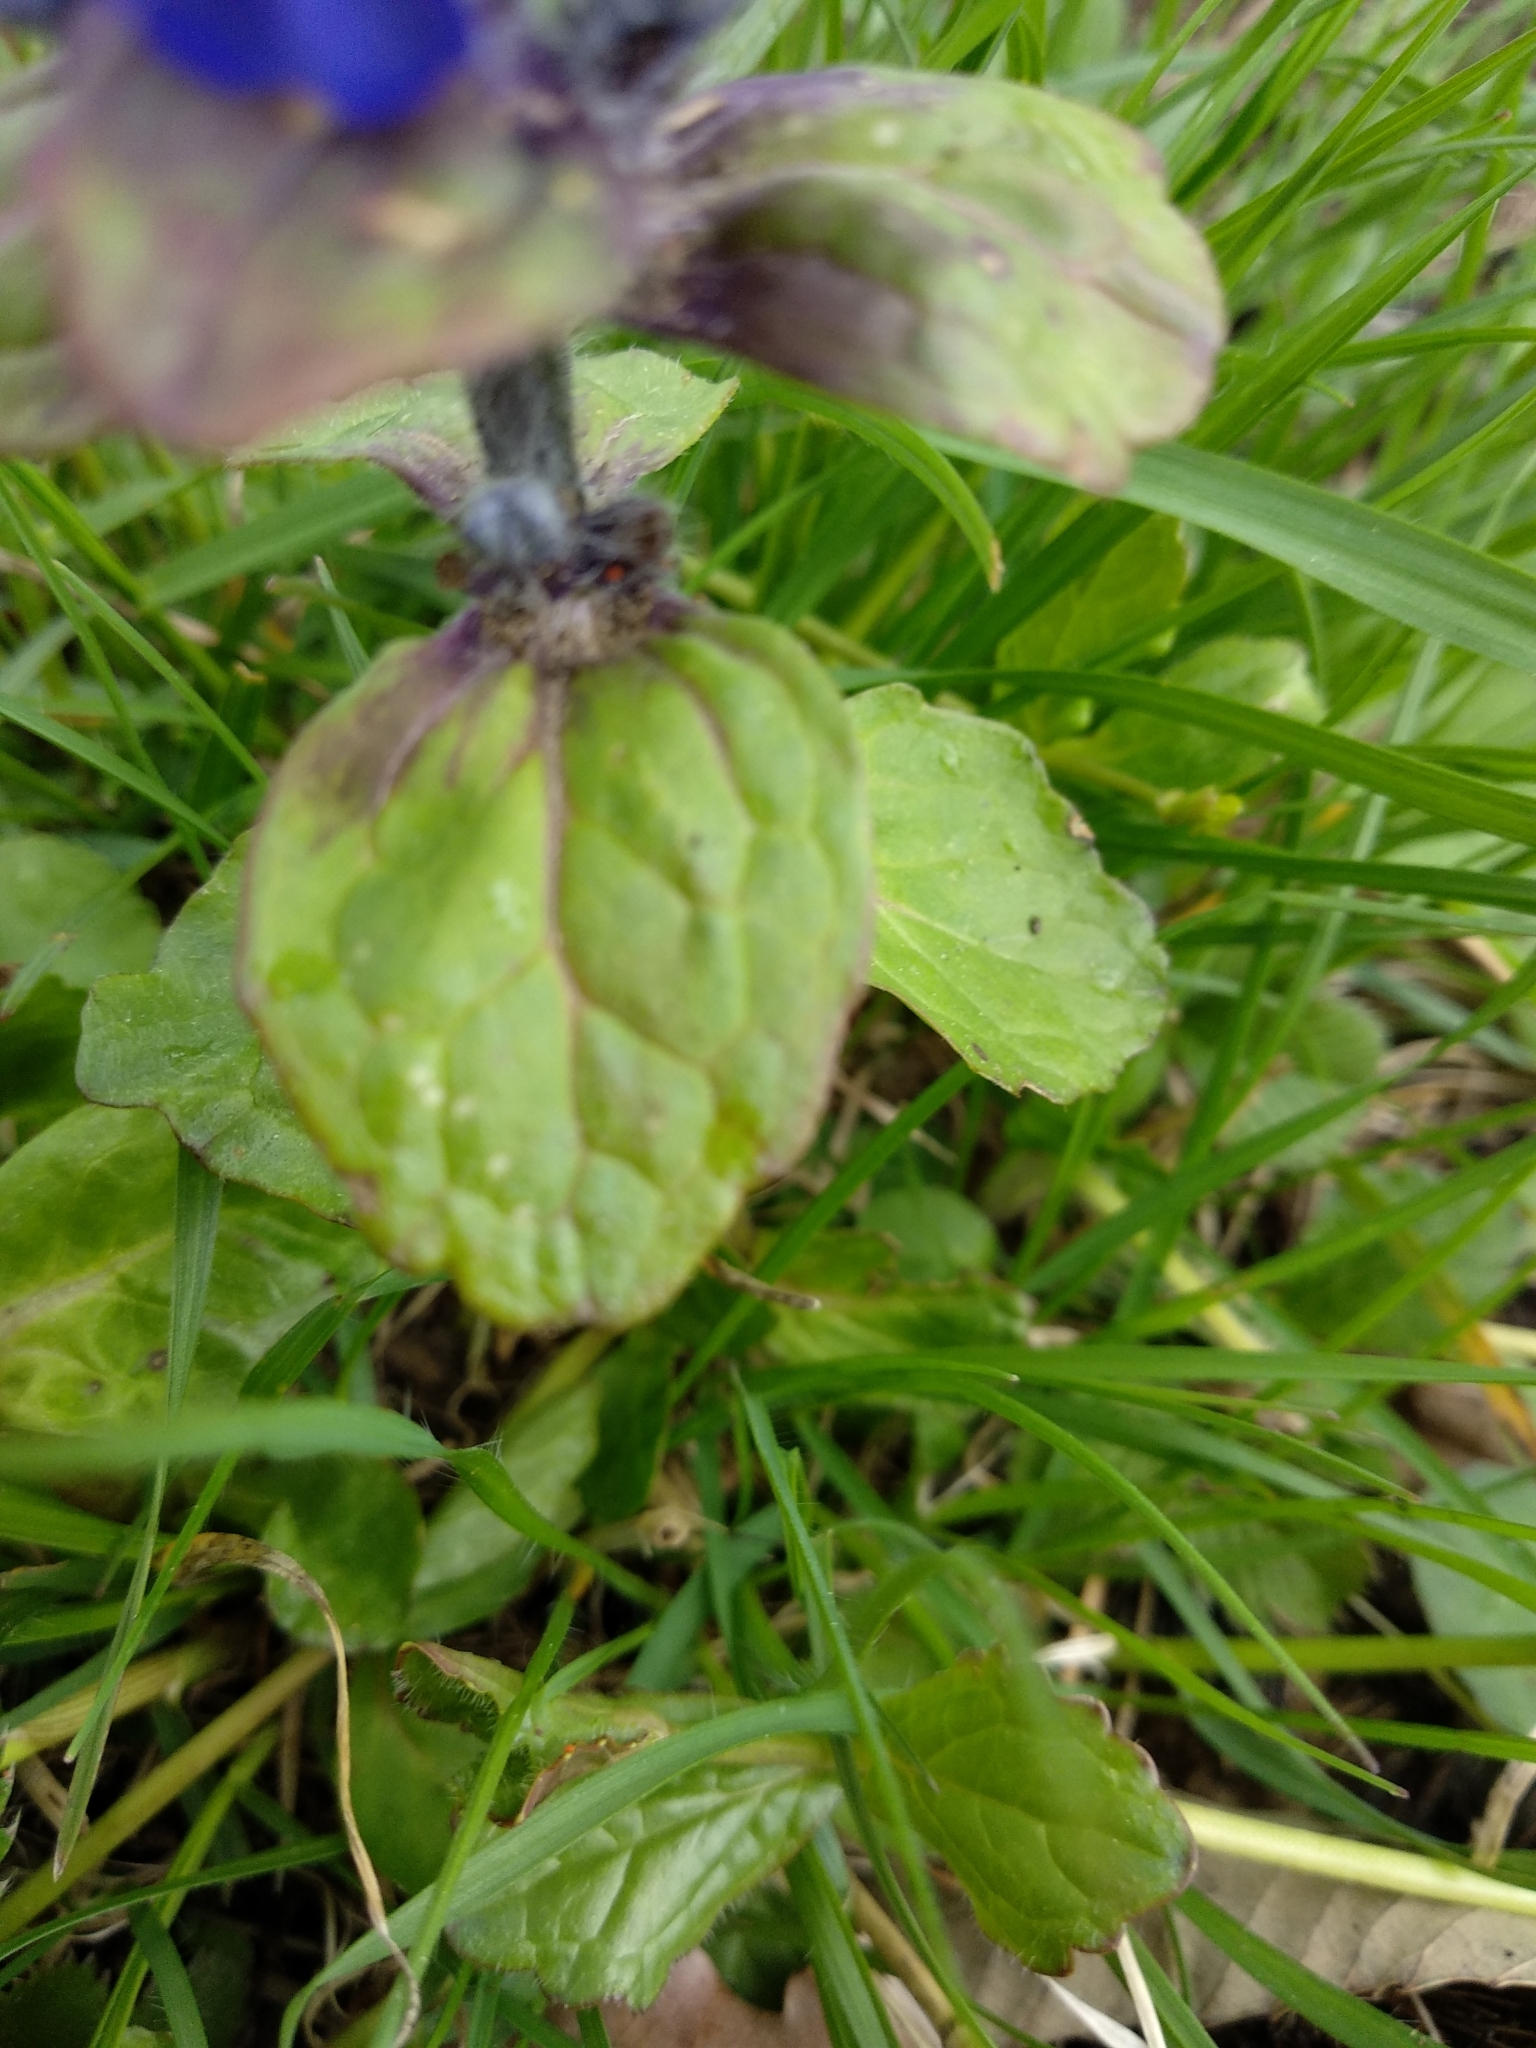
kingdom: Plantae
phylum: Tracheophyta
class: Magnoliopsida
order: Lamiales
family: Lamiaceae
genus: Ajuga
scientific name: Ajuga reptans
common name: Bugle
